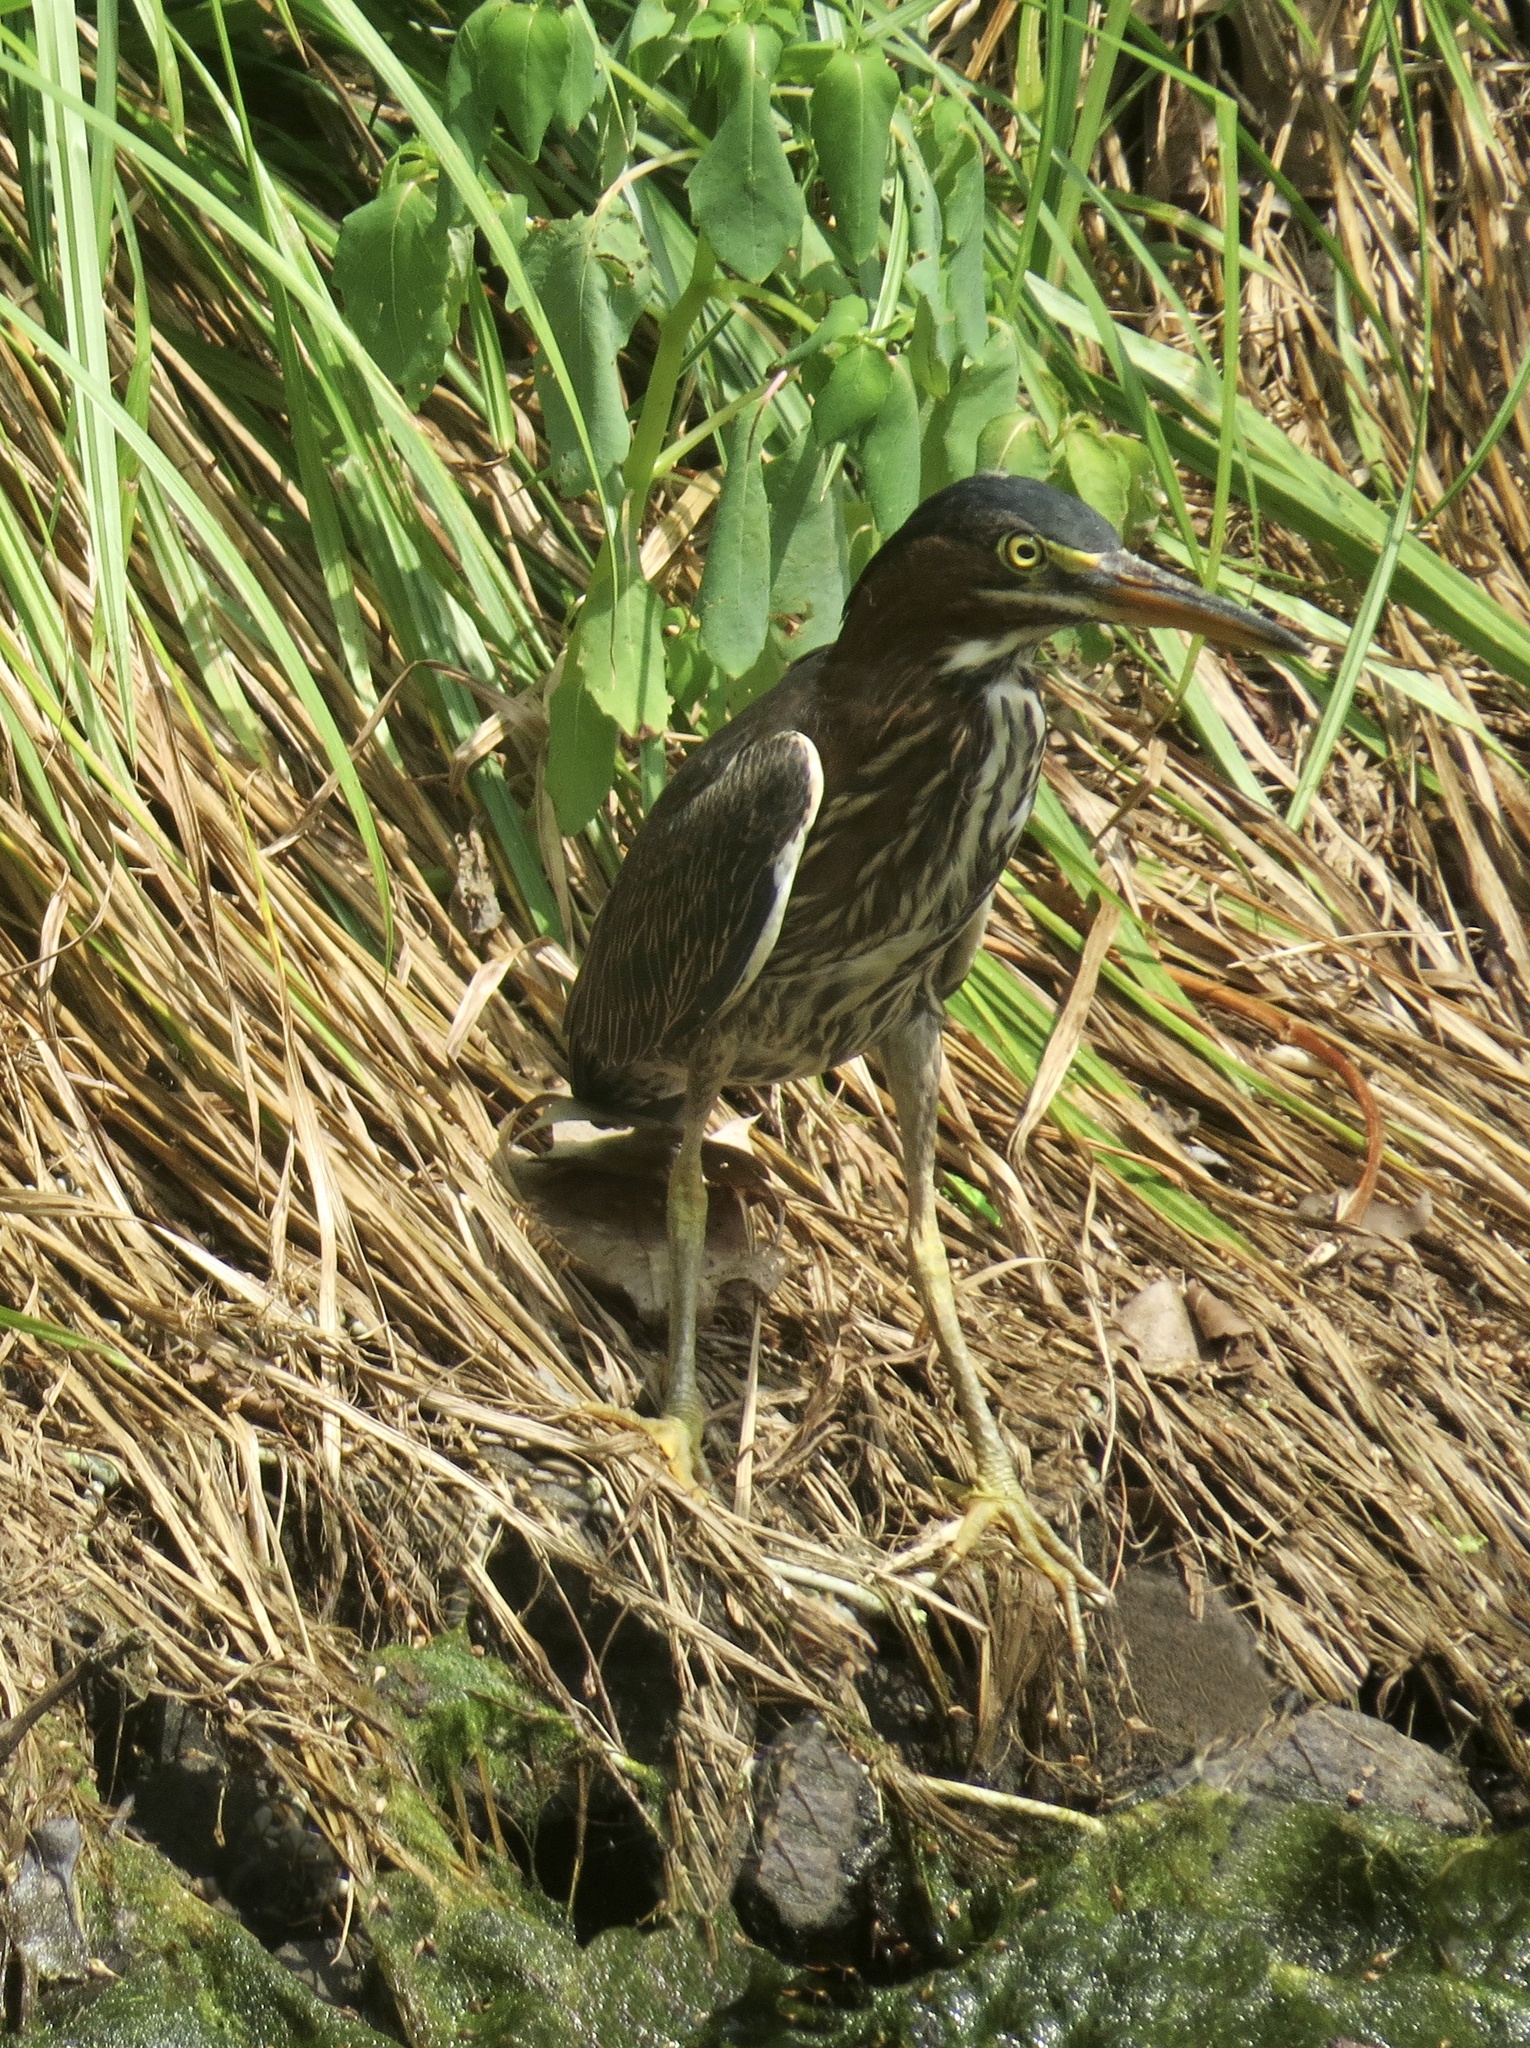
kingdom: Animalia
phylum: Chordata
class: Aves
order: Pelecaniformes
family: Ardeidae
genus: Butorides
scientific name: Butorides virescens
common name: Green heron
